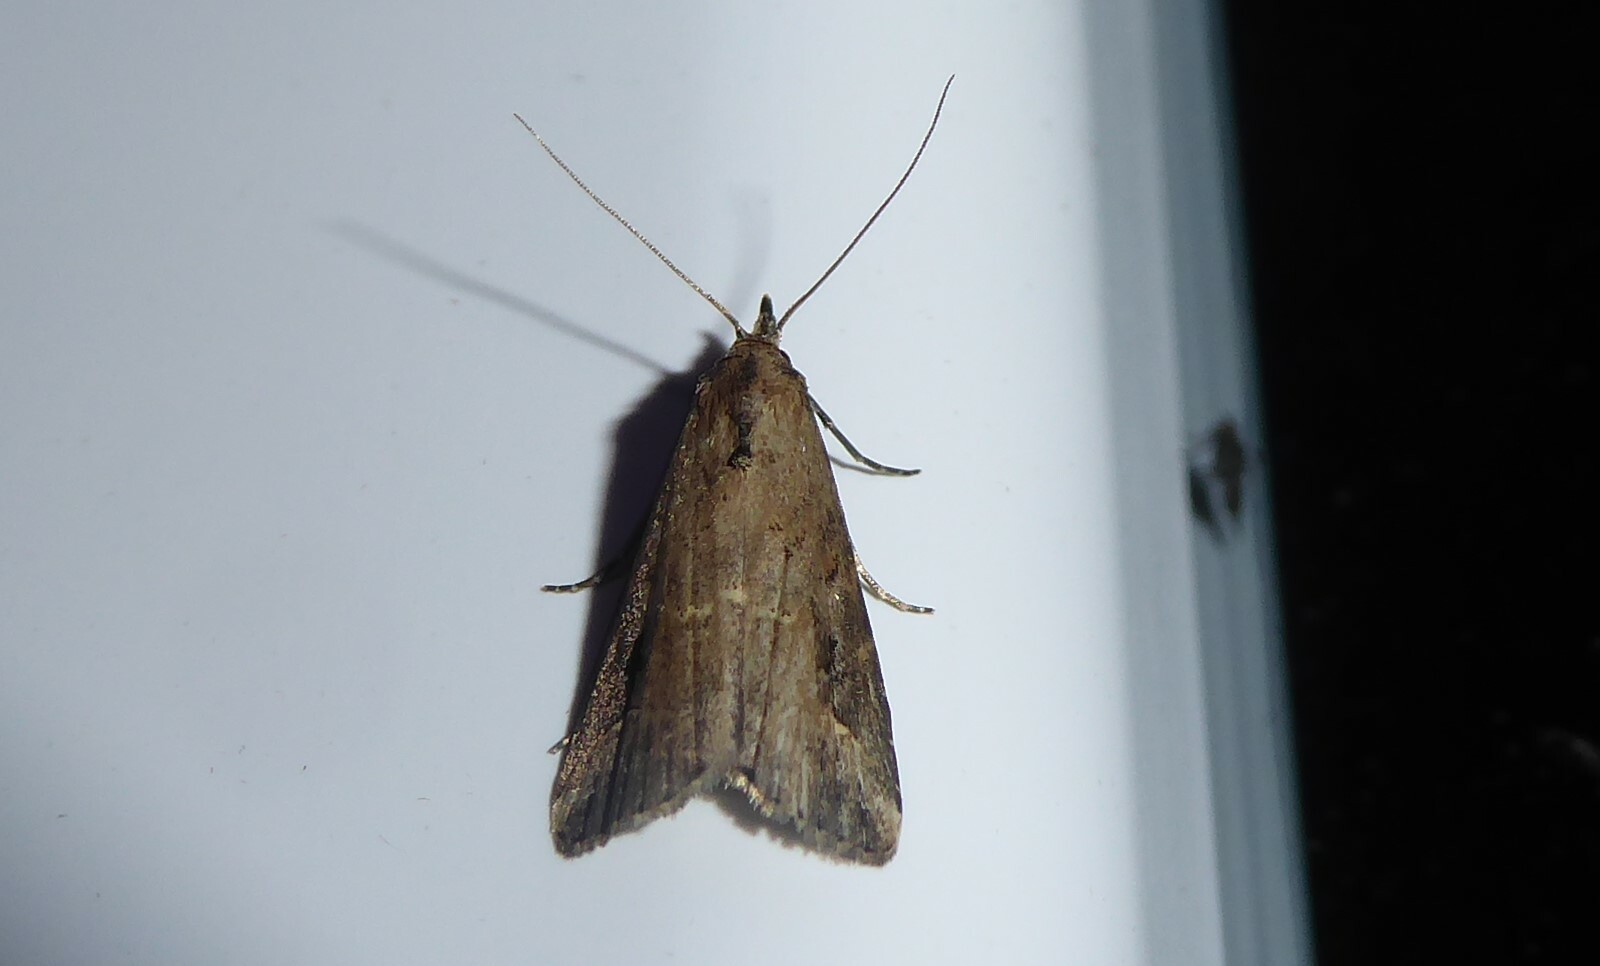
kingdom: Animalia
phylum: Arthropoda
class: Insecta
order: Lepidoptera
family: Erebidae
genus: Schrankia
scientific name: Schrankia costaestrigalis
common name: Pinion-streaked snout
